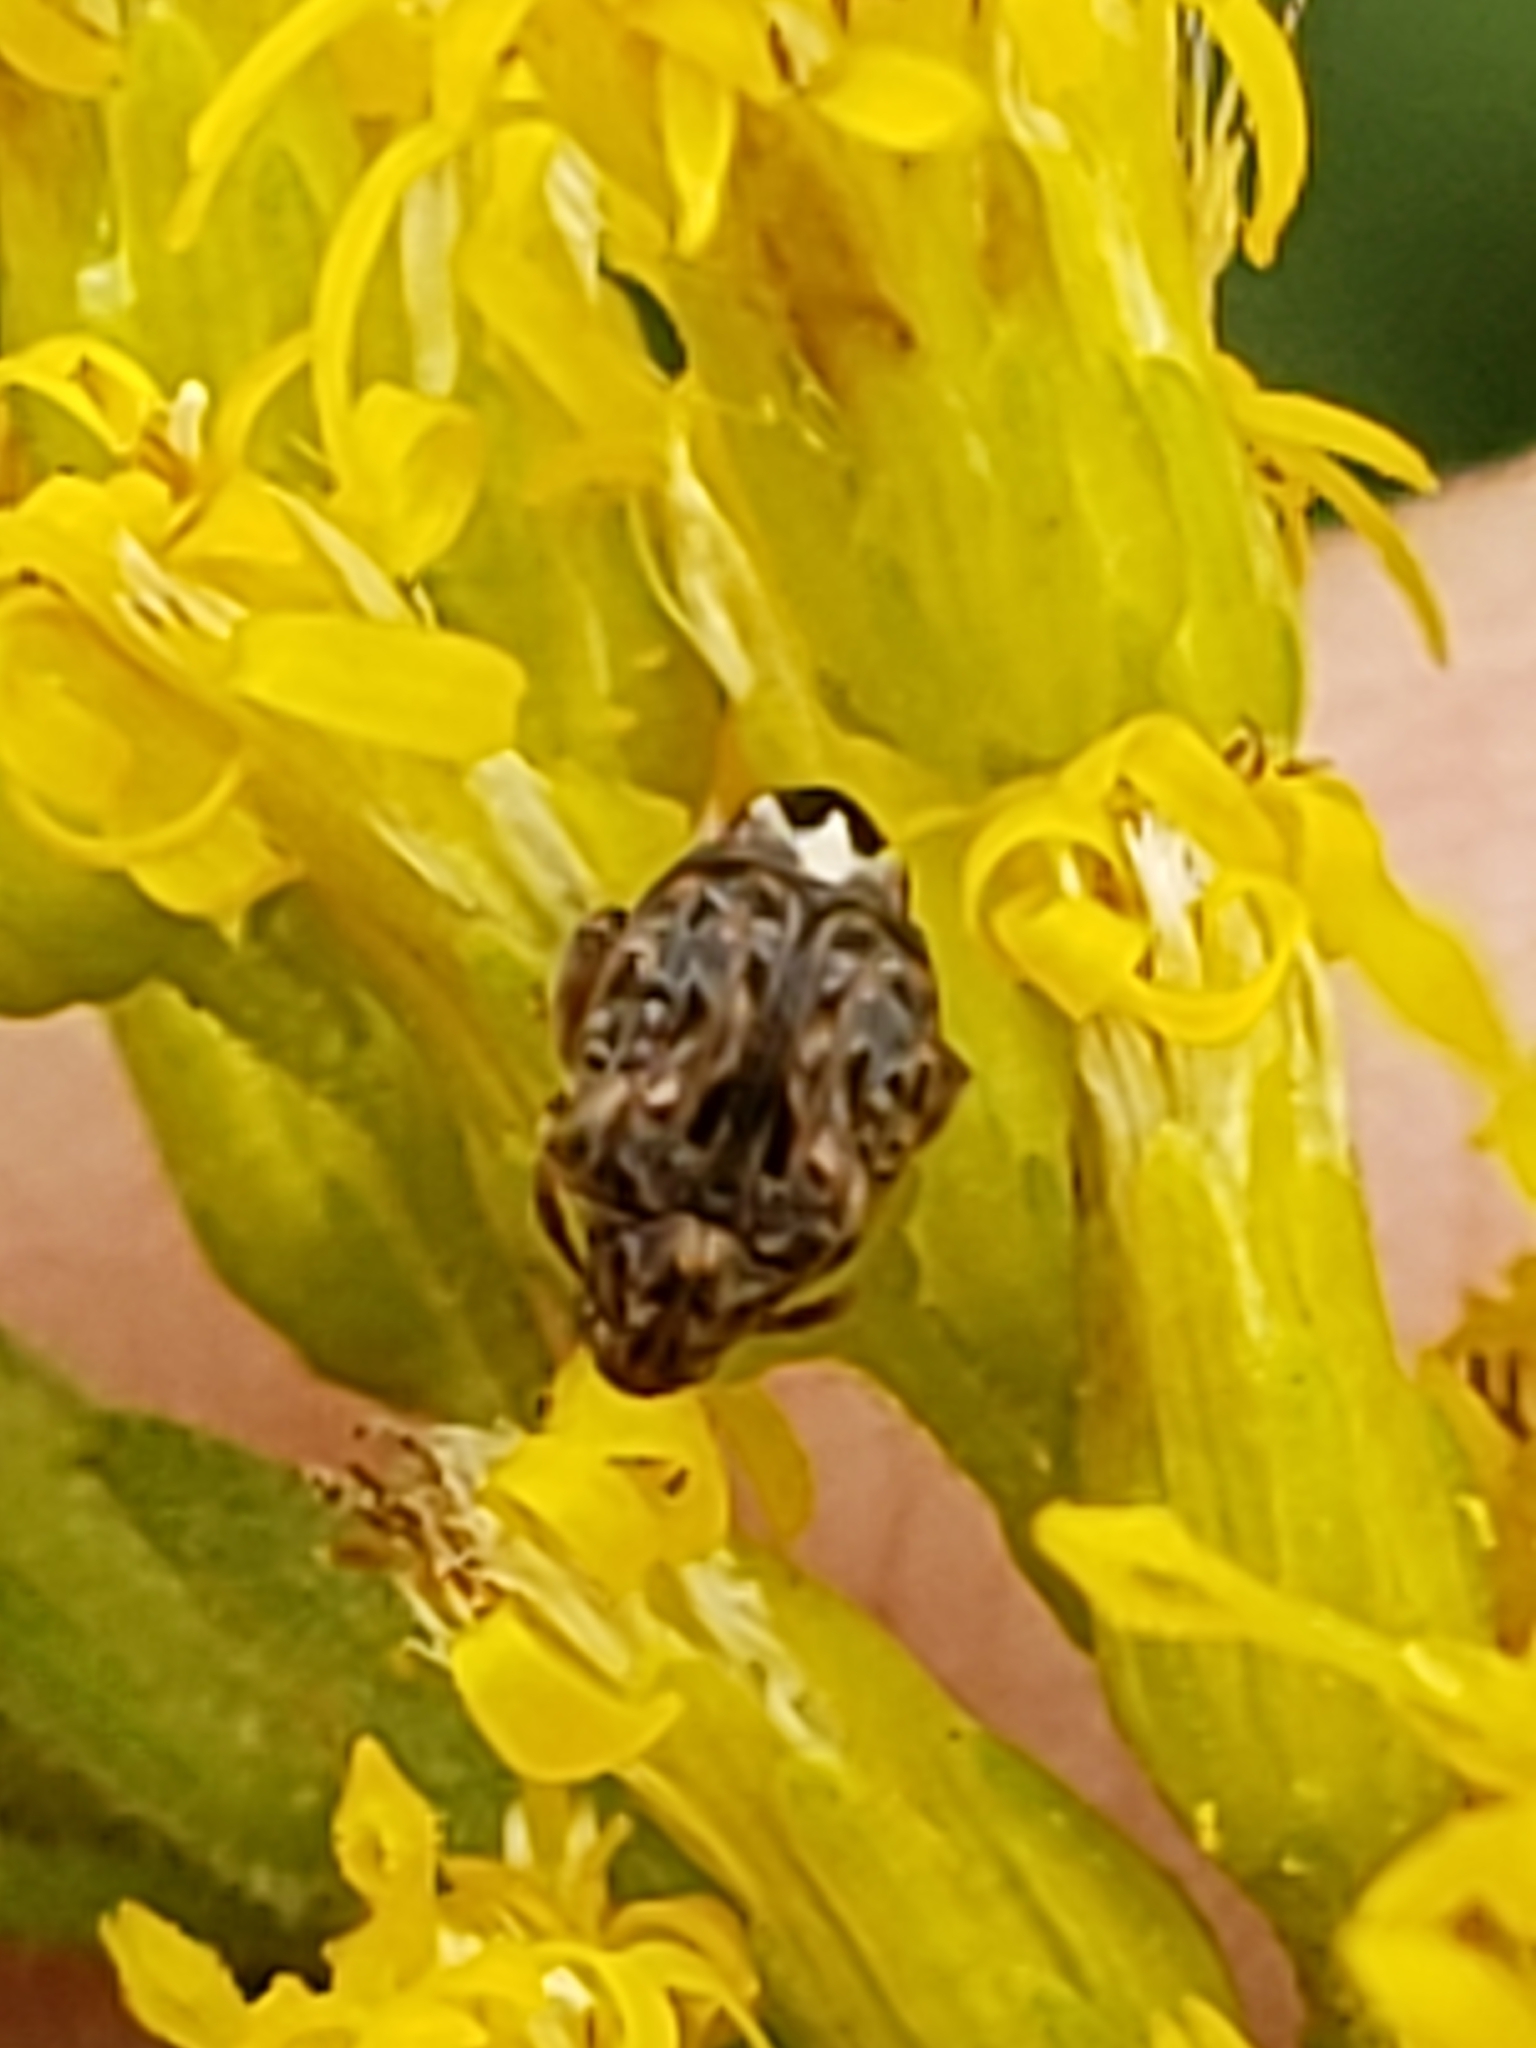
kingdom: Animalia
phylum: Arthropoda
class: Insecta
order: Coleoptera
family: Chrysomelidae
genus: Gibbobruchus
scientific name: Gibbobruchus mimus
